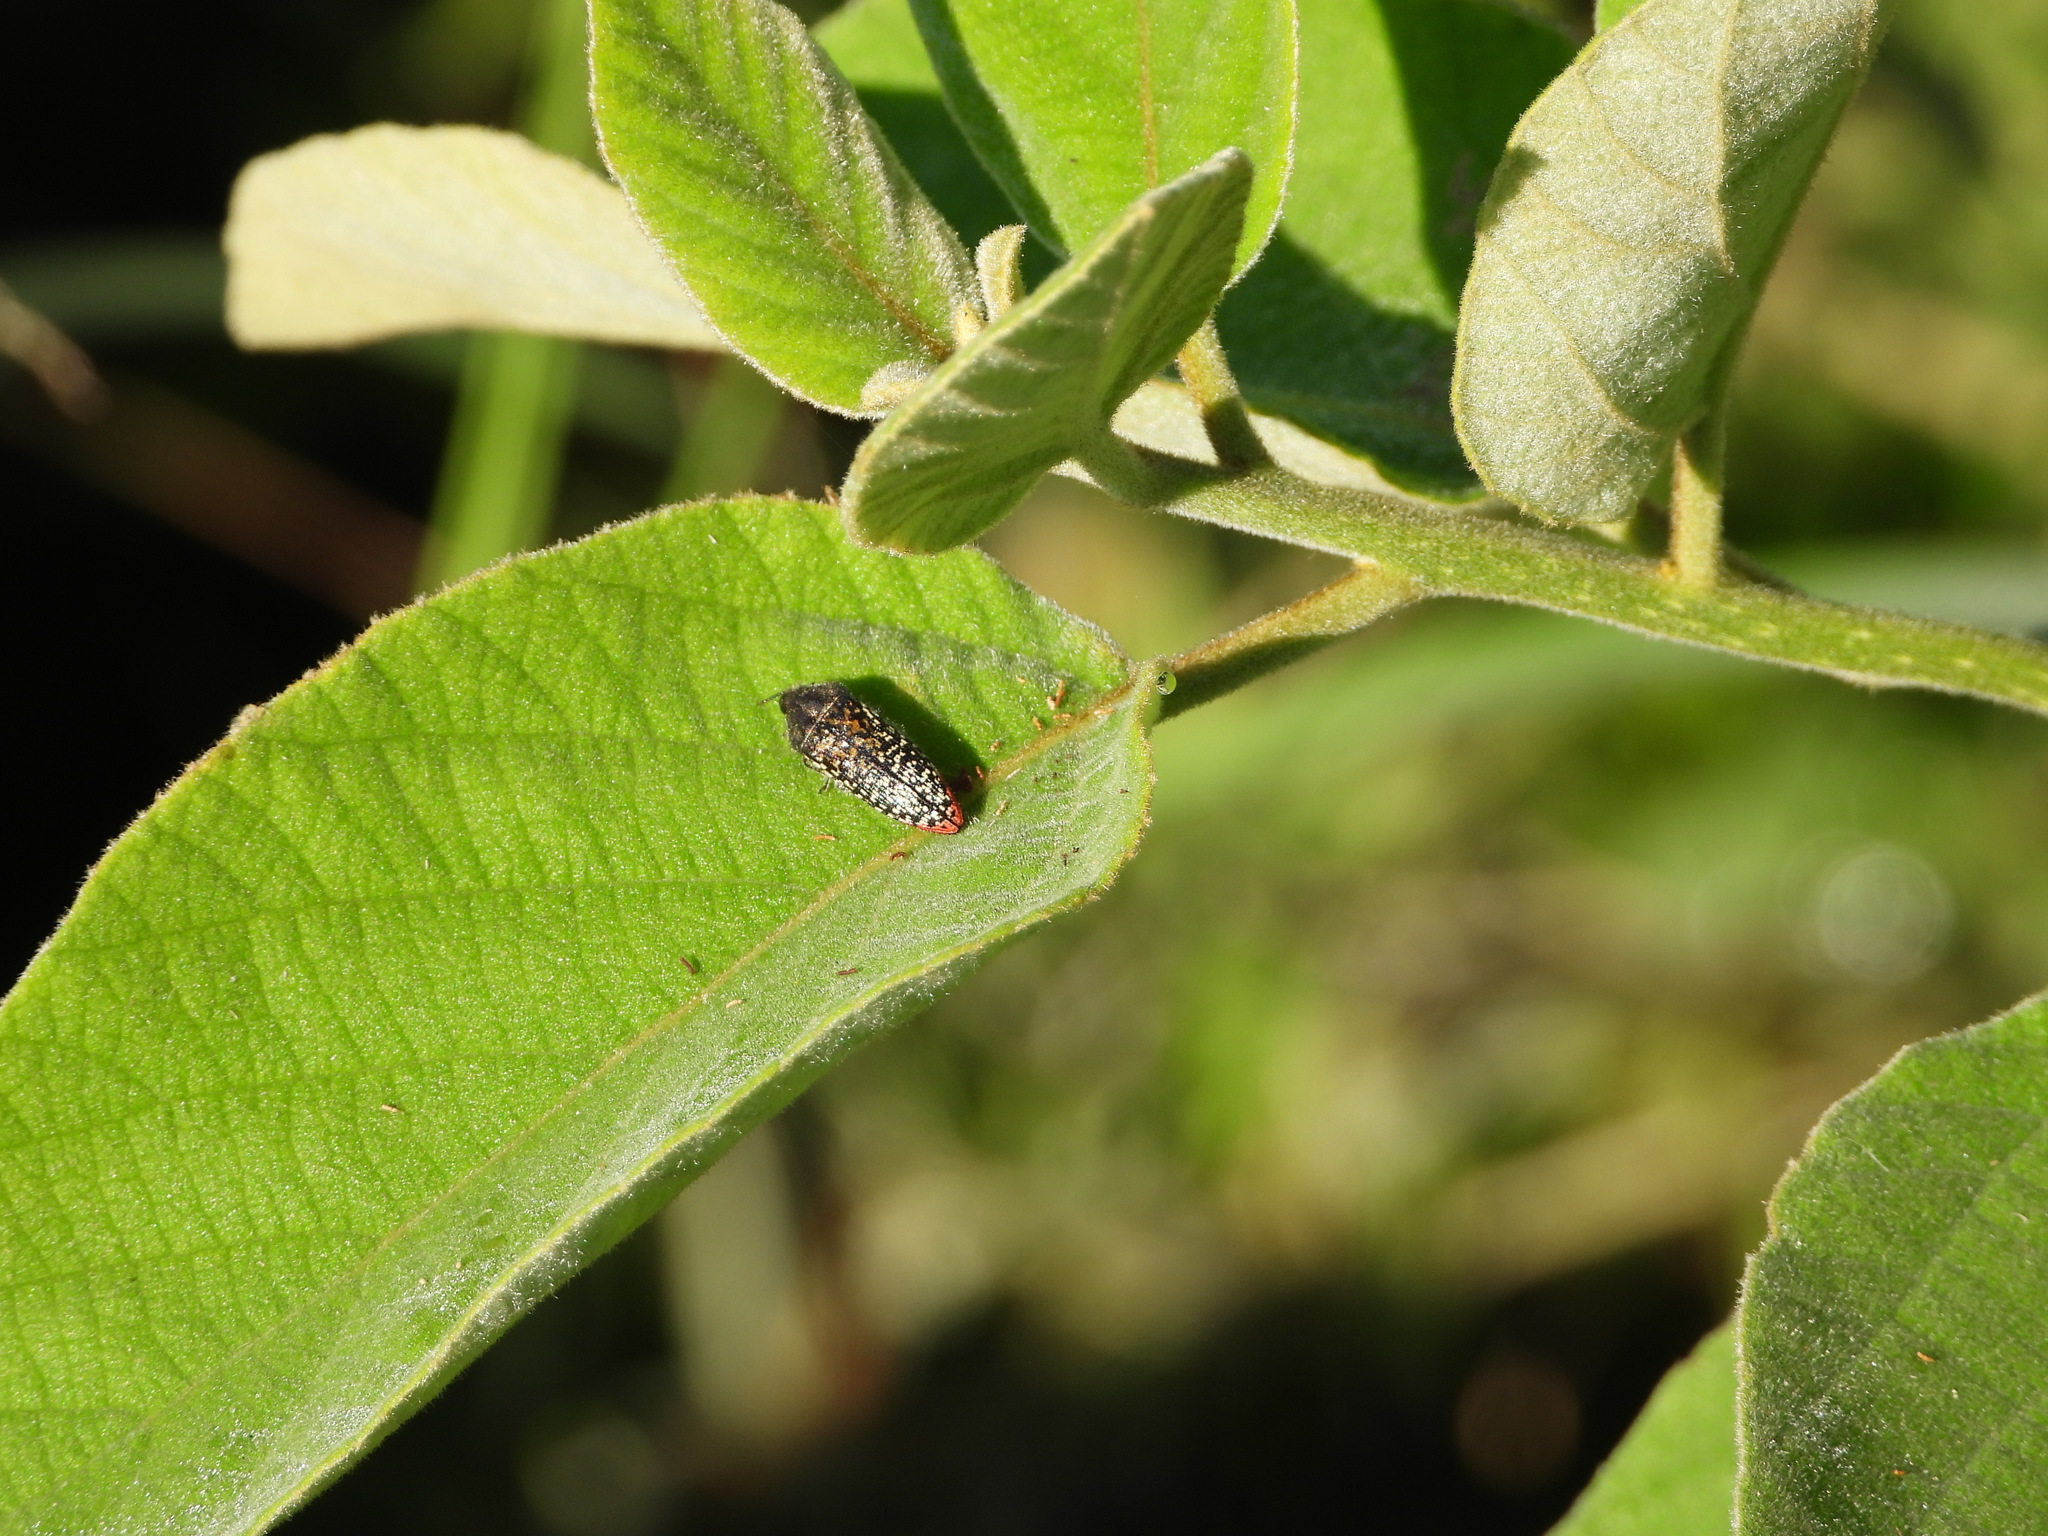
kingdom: Animalia
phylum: Arthropoda
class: Insecta
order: Coleoptera
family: Buprestidae
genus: Acmaeodera
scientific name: Acmaeodera haemorrhoa
